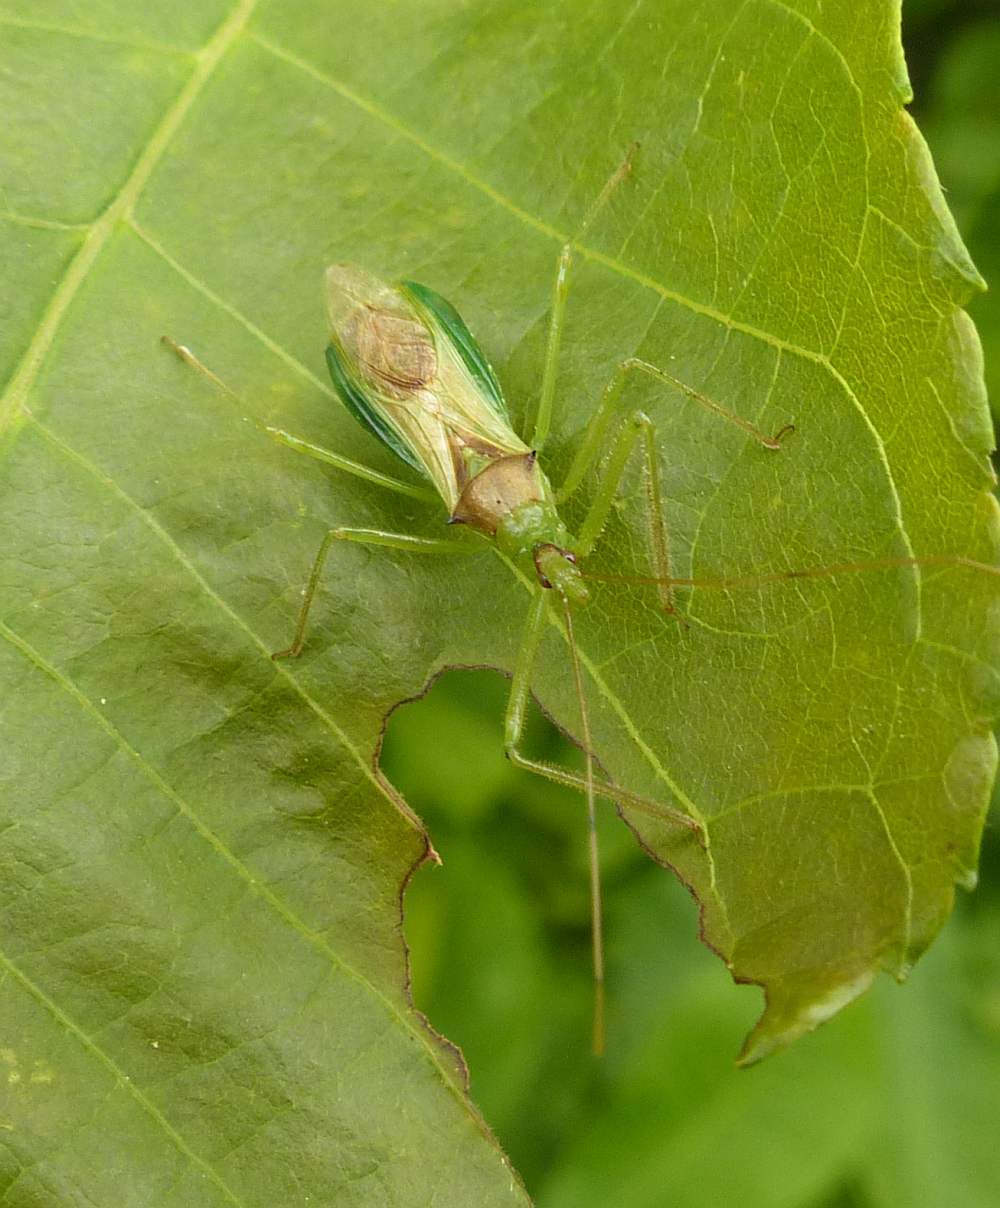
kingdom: Animalia
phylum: Arthropoda
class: Insecta
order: Hemiptera
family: Reduviidae
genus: Zelus
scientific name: Zelus luridus
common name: Pale green assassin bug
